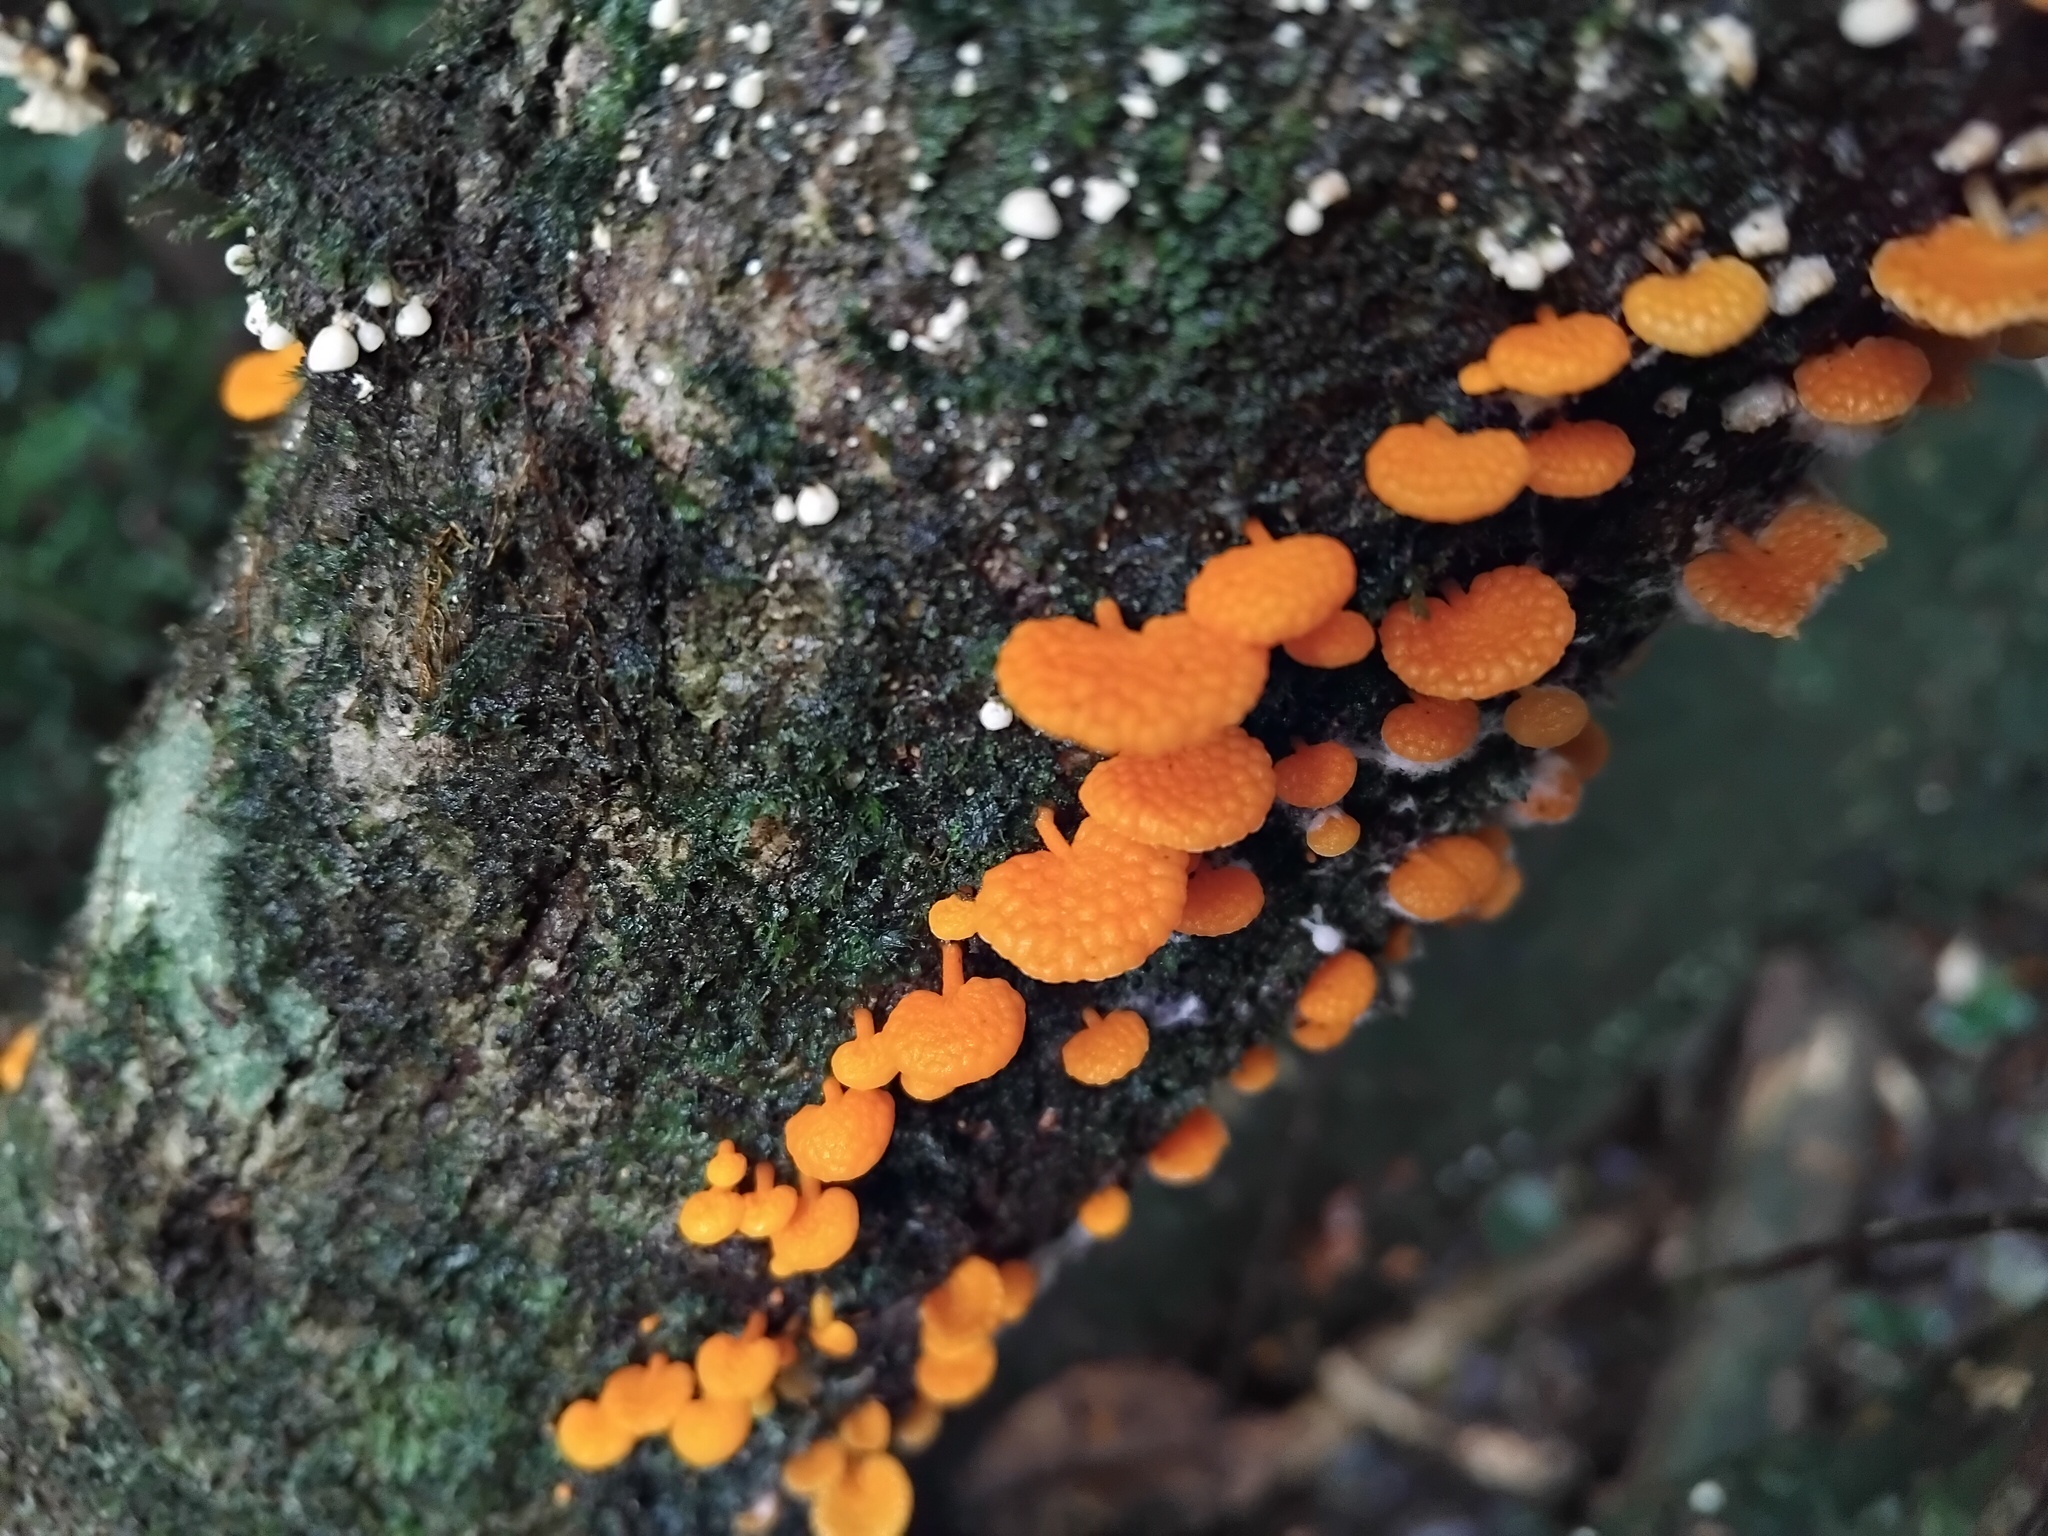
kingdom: Fungi
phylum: Basidiomycota
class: Agaricomycetes
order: Agaricales
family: Mycenaceae
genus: Favolaschia
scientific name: Favolaschia claudopus
